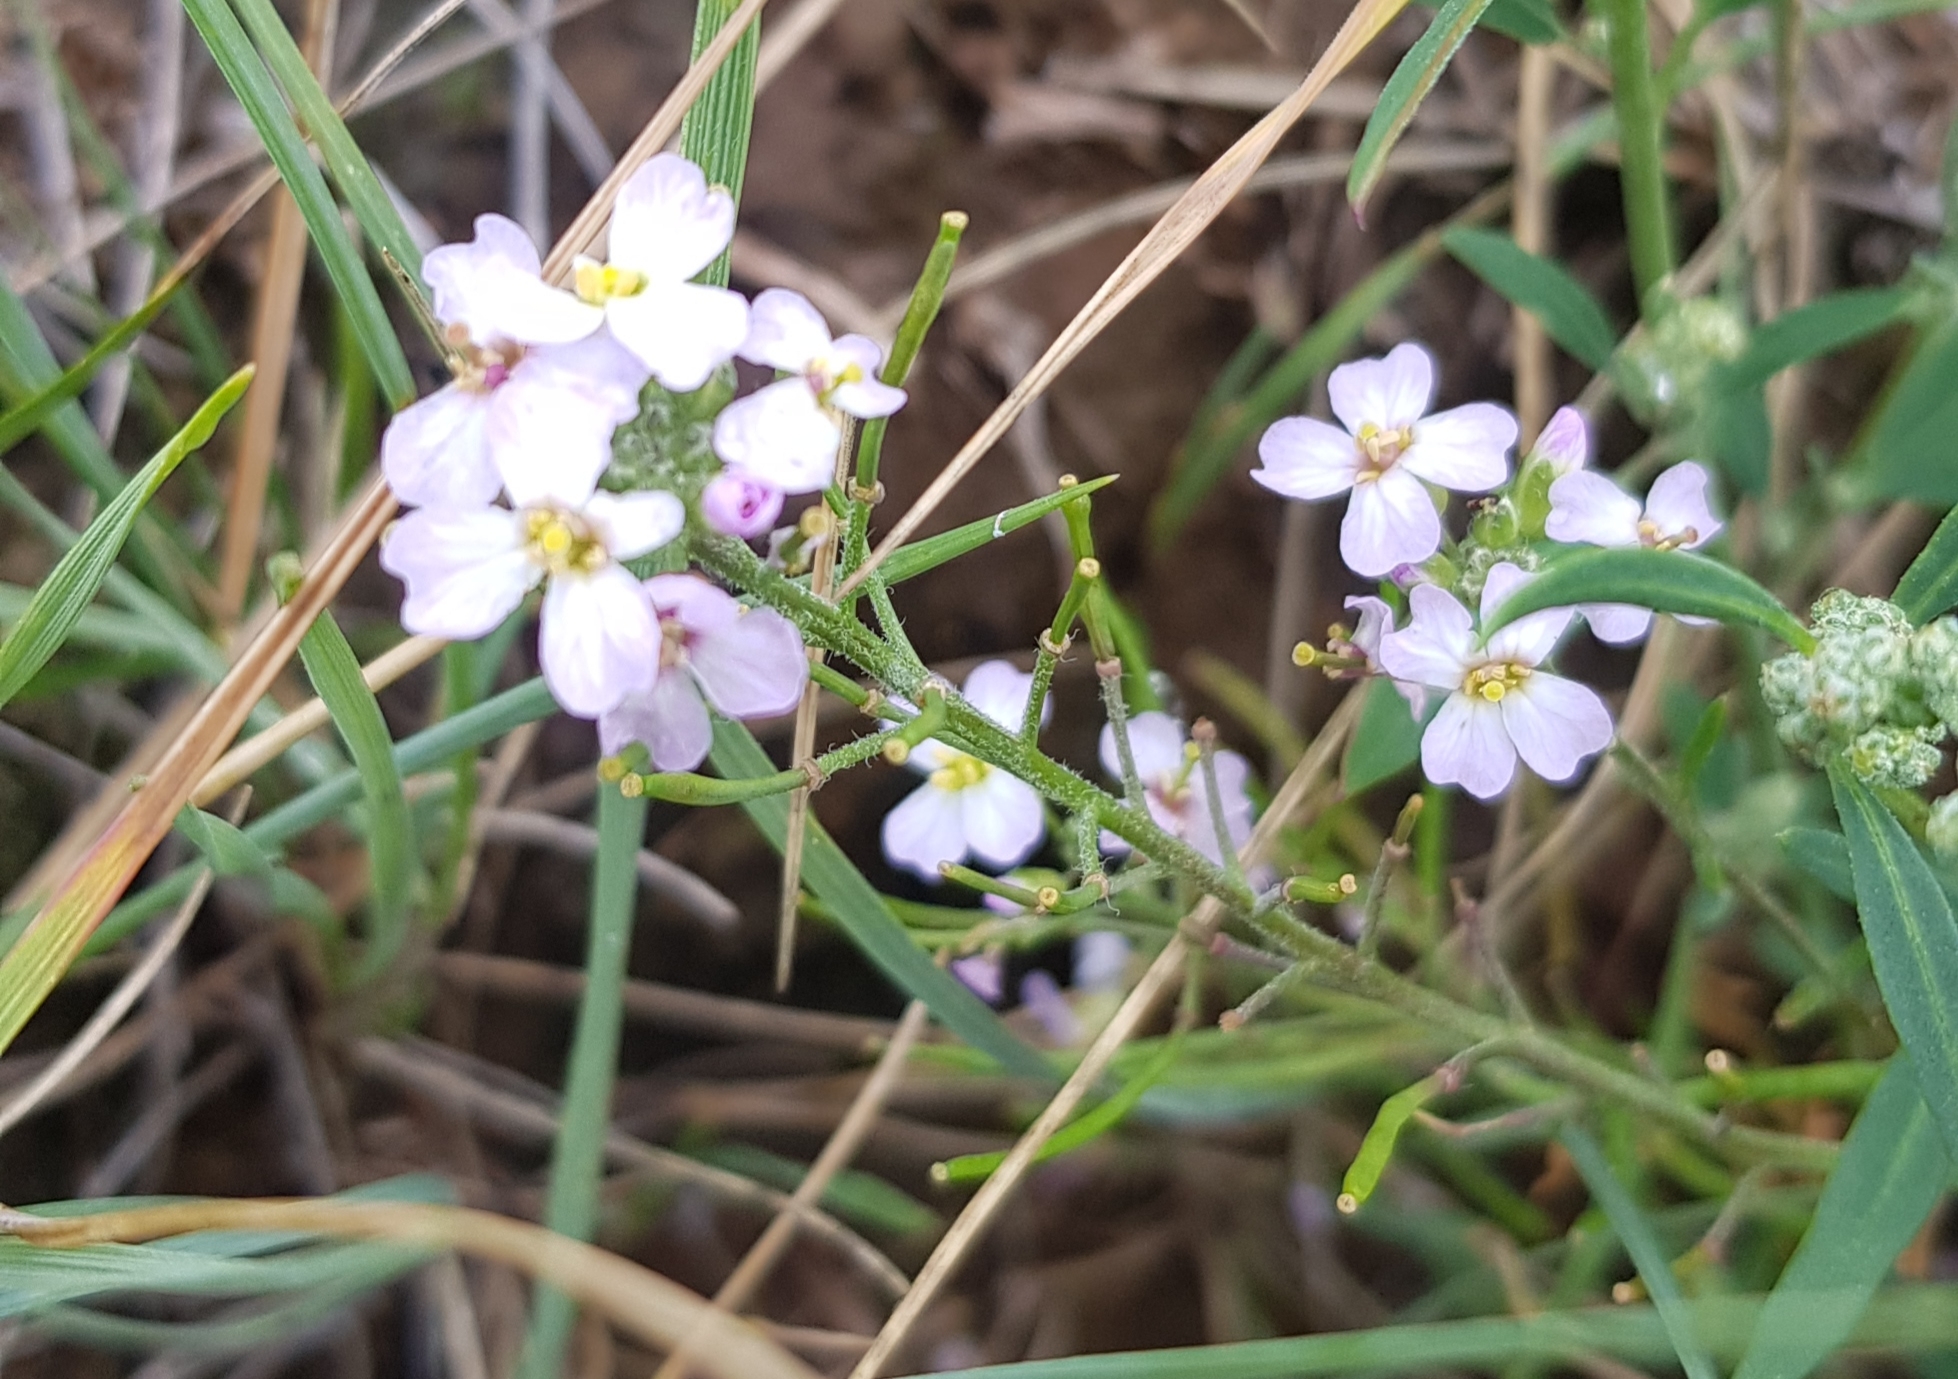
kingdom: Plantae
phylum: Tracheophyta
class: Magnoliopsida
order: Brassicales
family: Brassicaceae
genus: Dontostemon
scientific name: Dontostemon integrifolius
